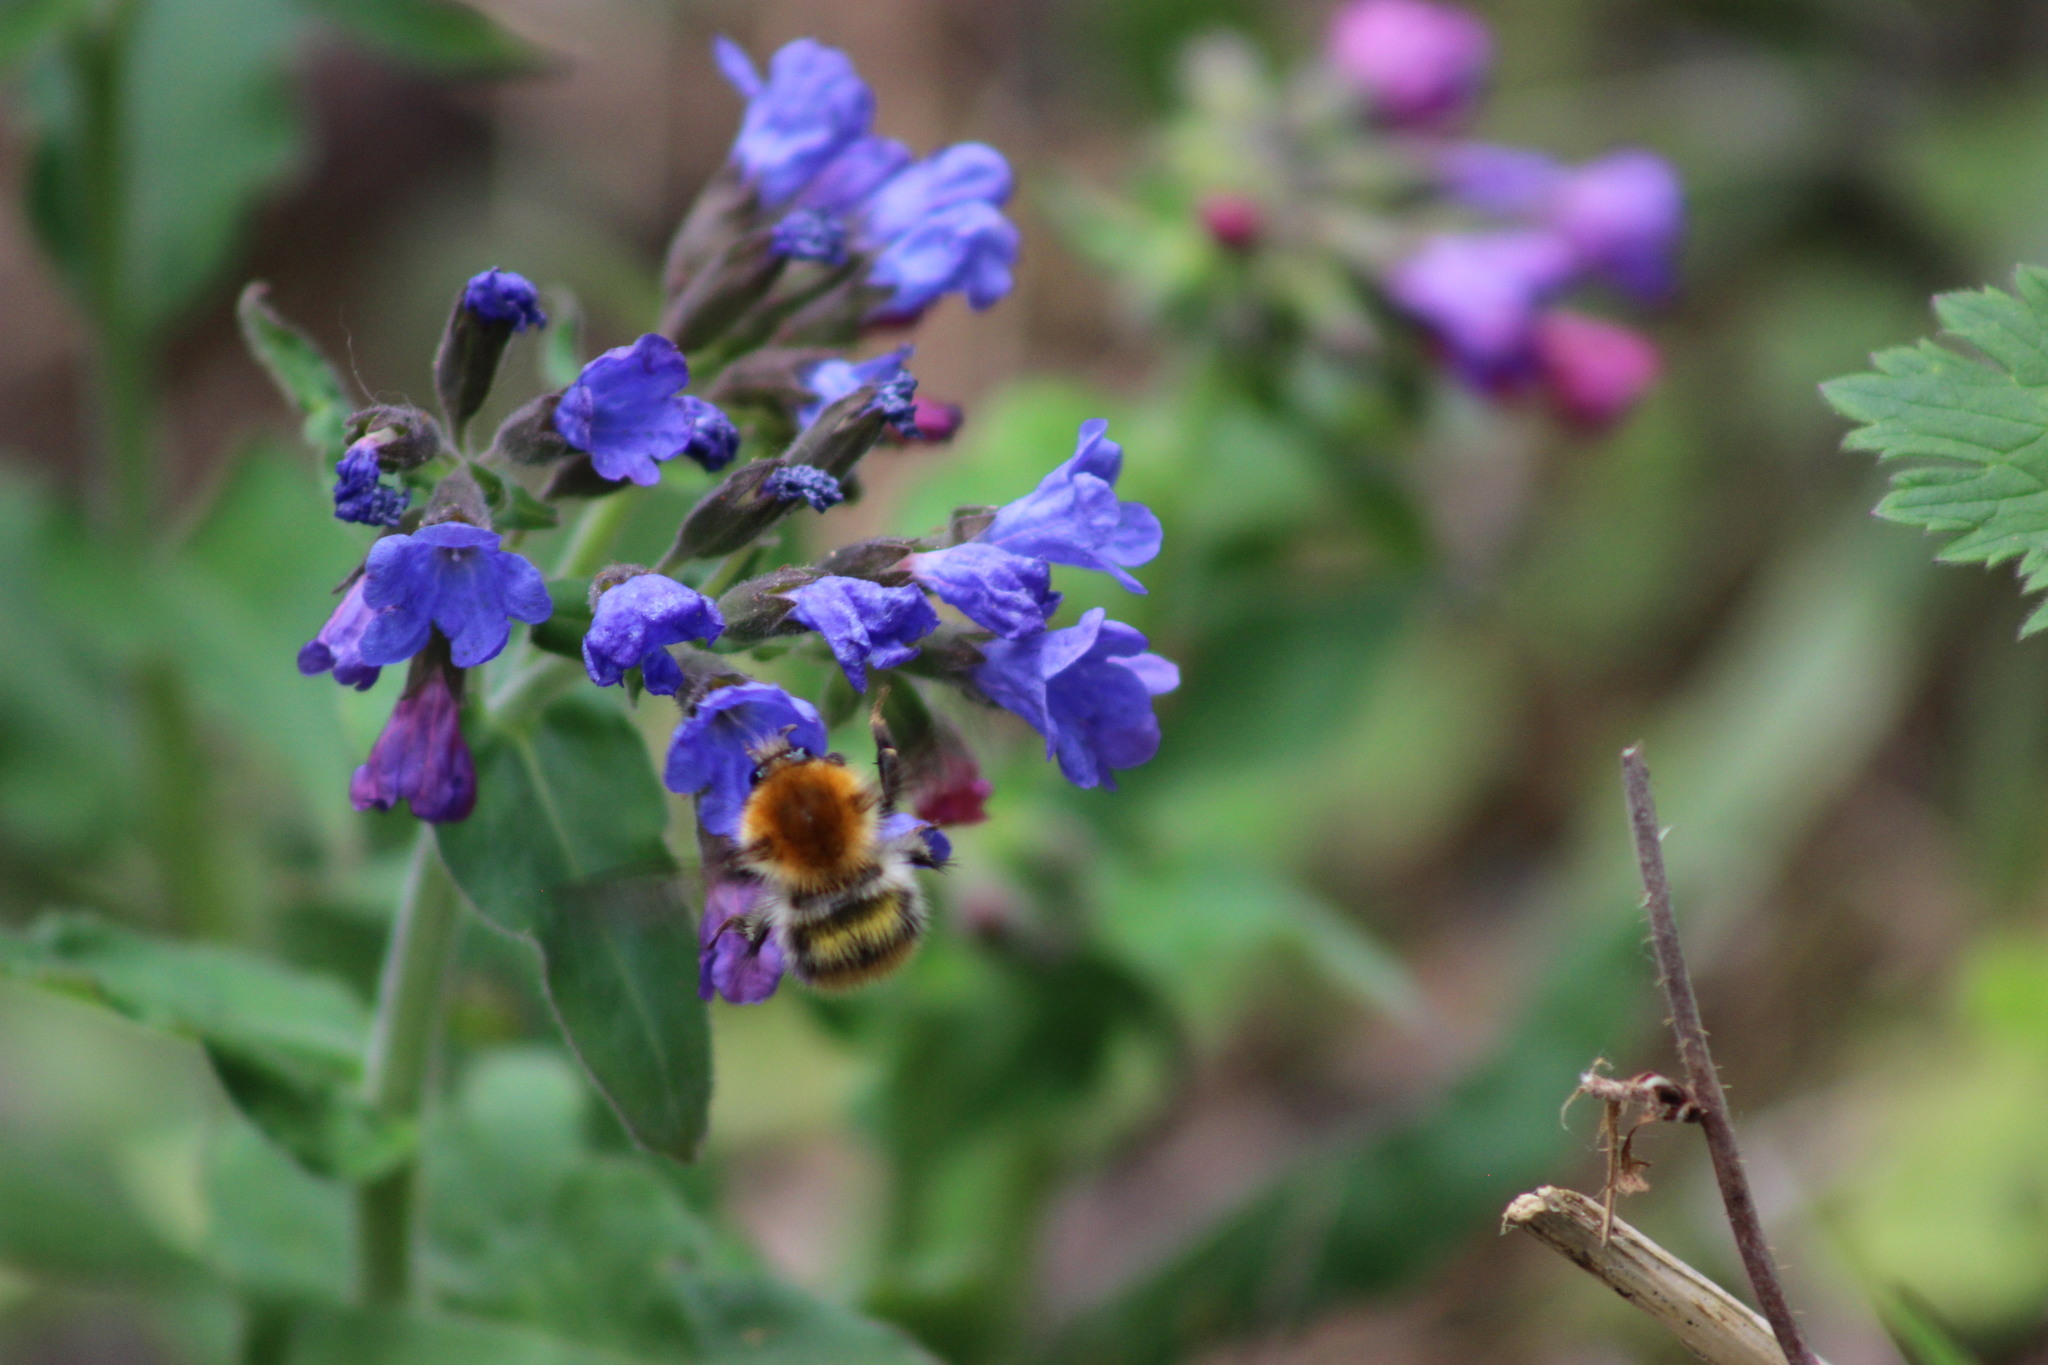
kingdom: Animalia
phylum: Arthropoda
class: Insecta
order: Hymenoptera
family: Apidae
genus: Bombus
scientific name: Bombus pascuorum
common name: Common carder bee
